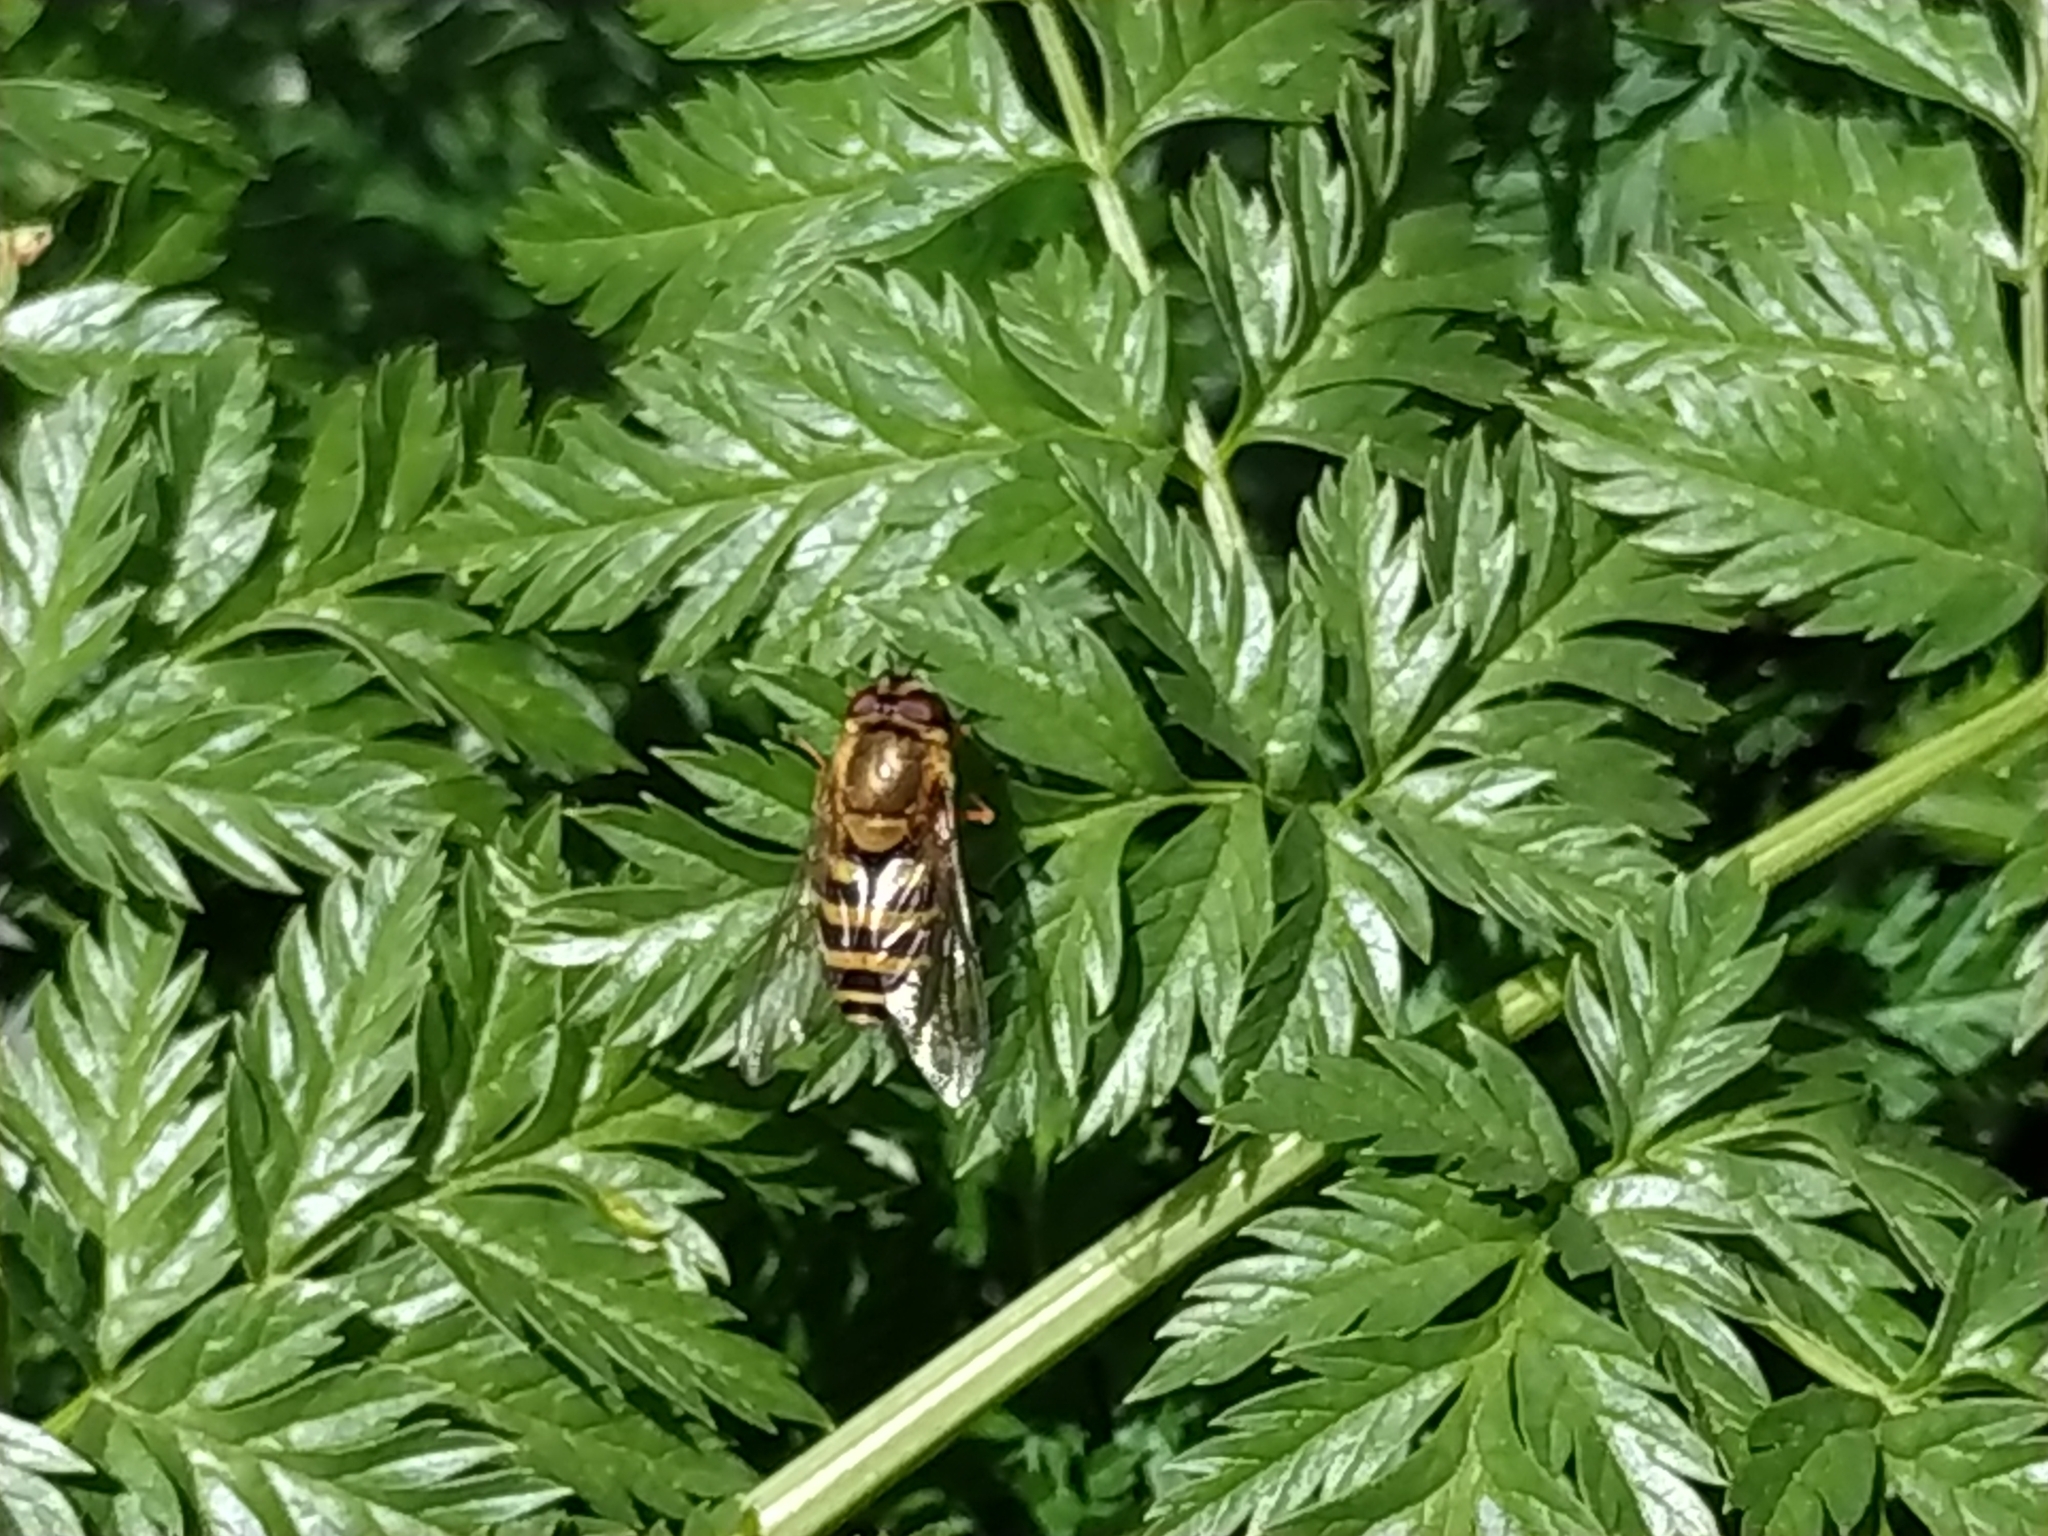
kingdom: Animalia
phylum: Arthropoda
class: Insecta
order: Diptera
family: Syrphidae
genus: Syrphus
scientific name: Syrphus
